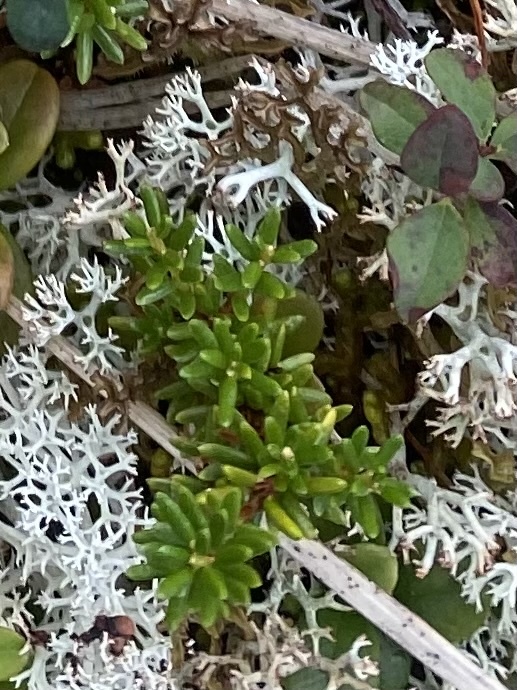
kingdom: Plantae
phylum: Tracheophyta
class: Magnoliopsida
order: Ericales
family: Ericaceae
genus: Empetrum
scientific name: Empetrum nigrum
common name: Black crowberry
